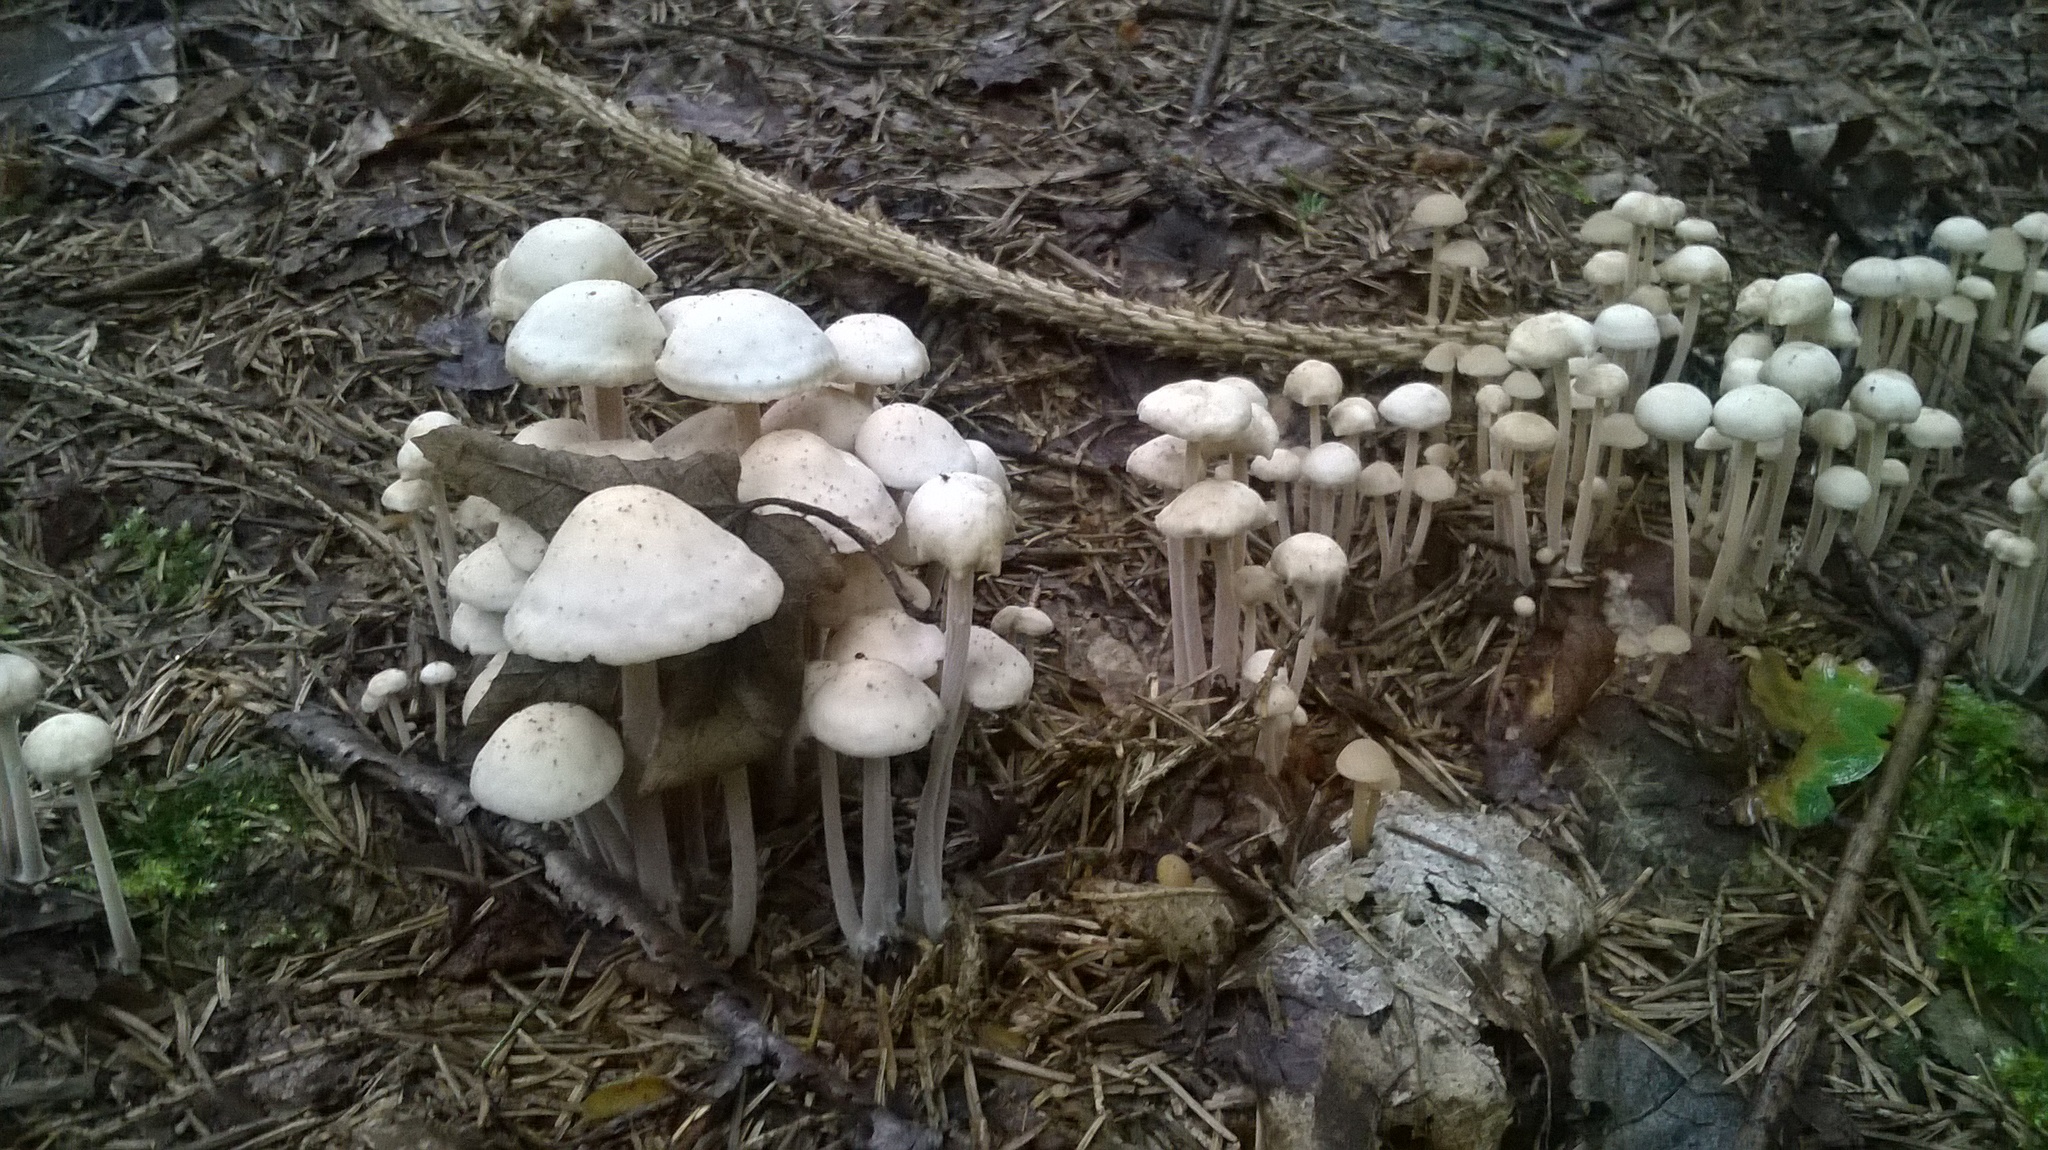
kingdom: Fungi
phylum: Basidiomycota
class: Agaricomycetes
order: Agaricales
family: Omphalotaceae
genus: Collybiopsis
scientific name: Collybiopsis confluens
